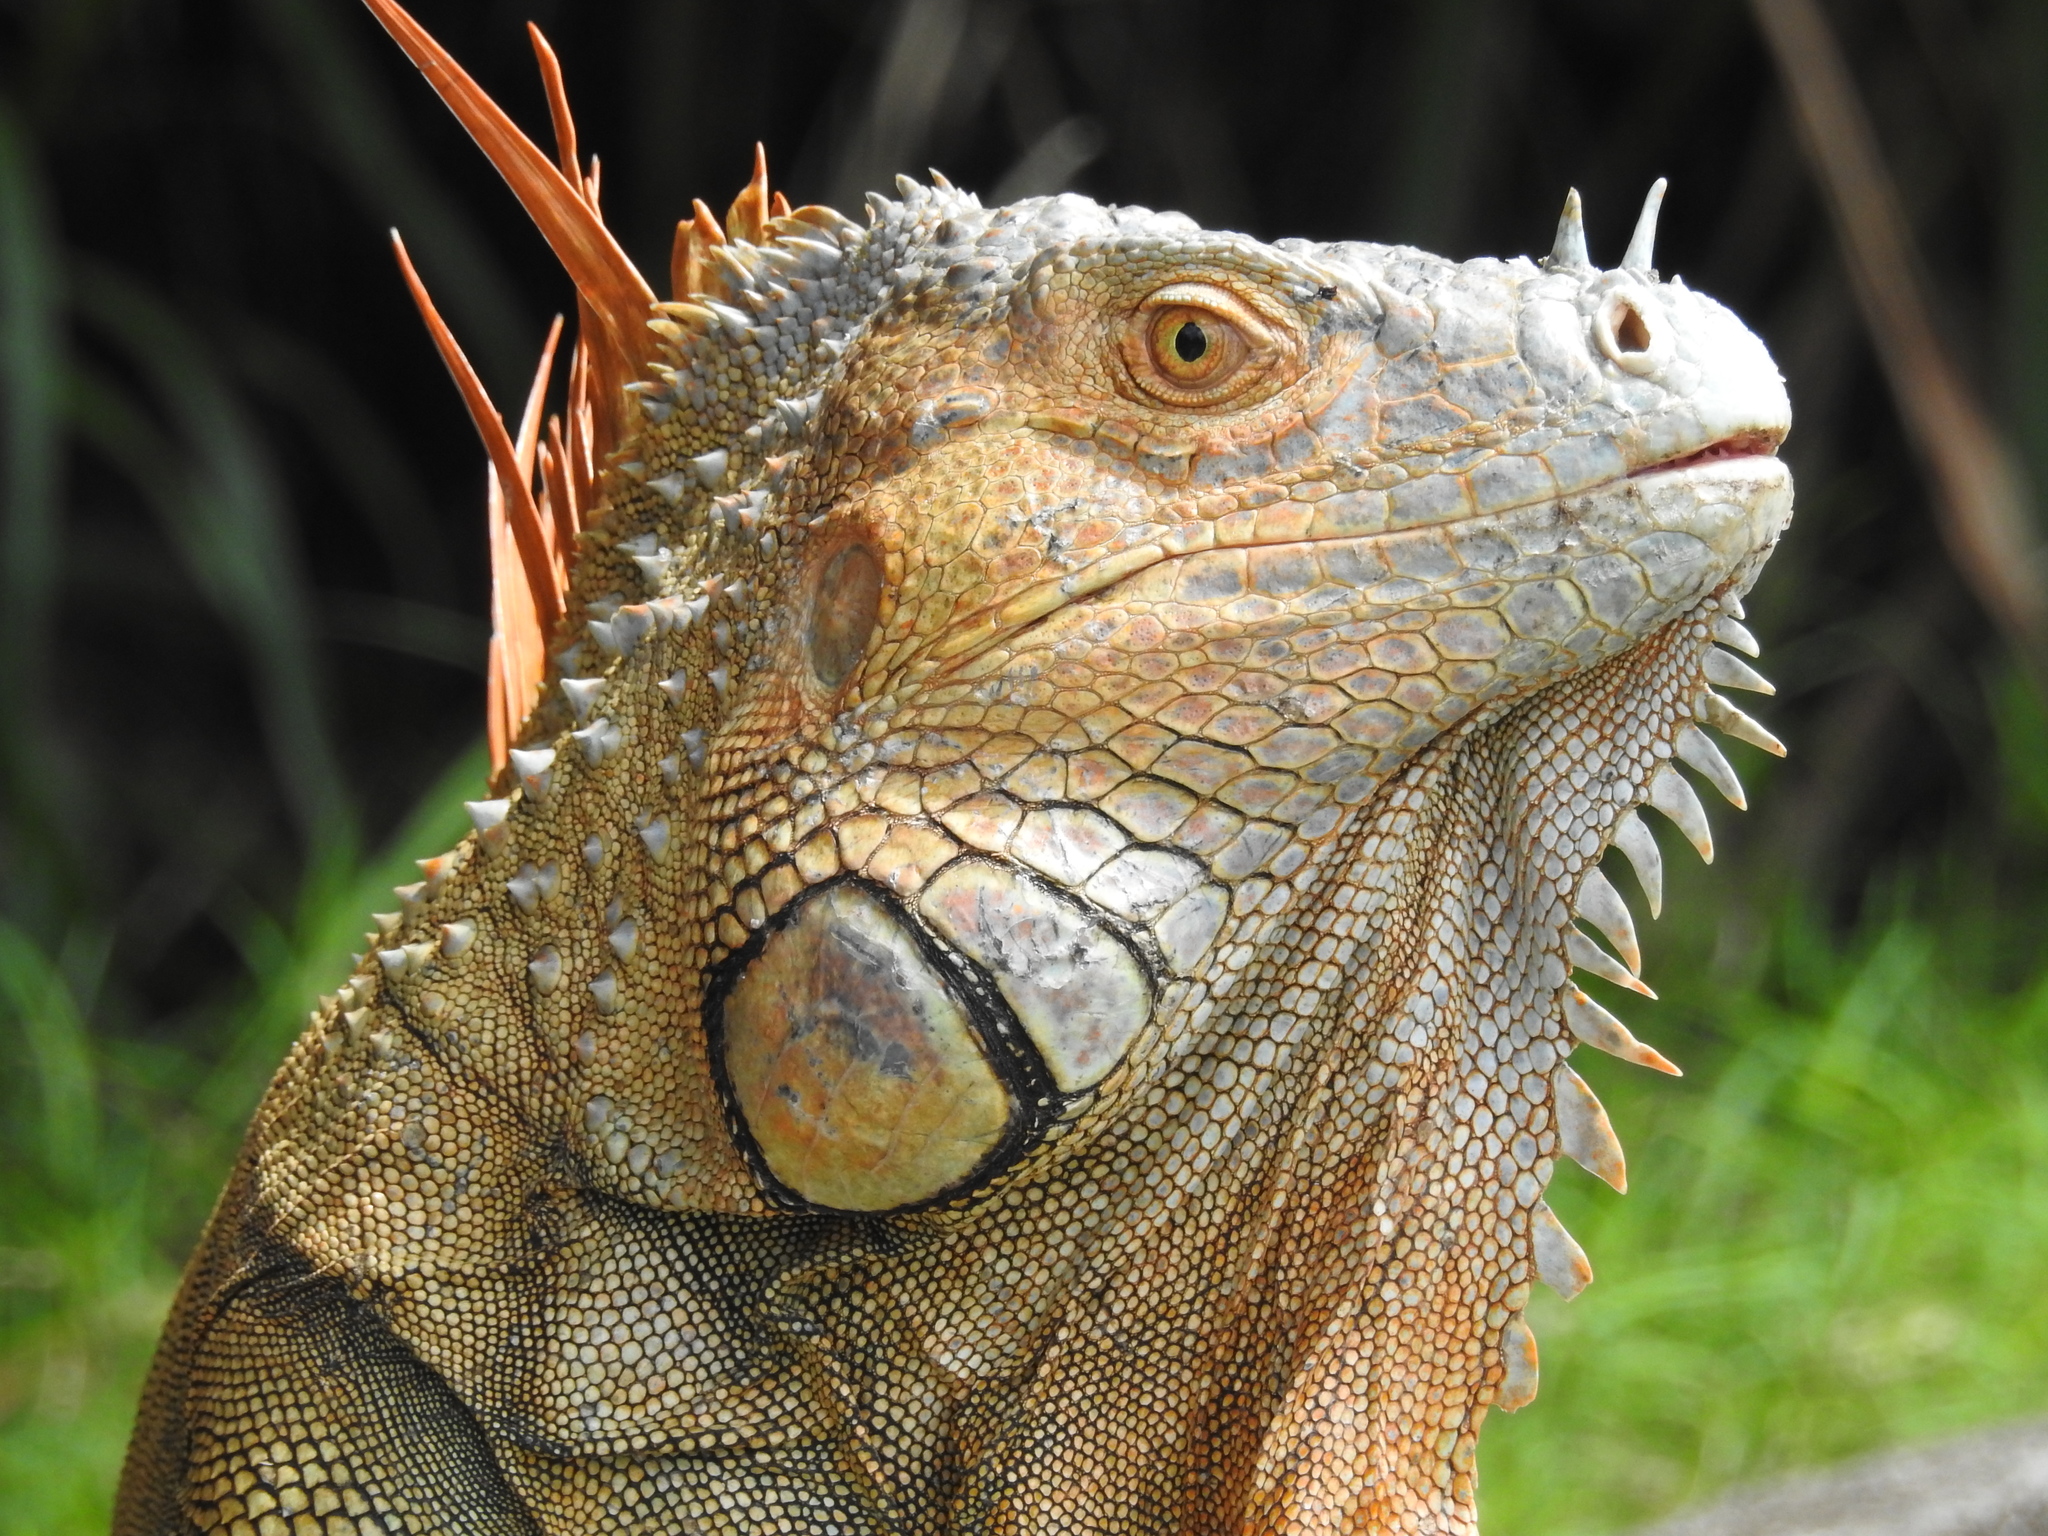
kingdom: Animalia
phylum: Chordata
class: Squamata
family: Iguanidae
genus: Iguana
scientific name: Iguana iguana
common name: Green iguana
